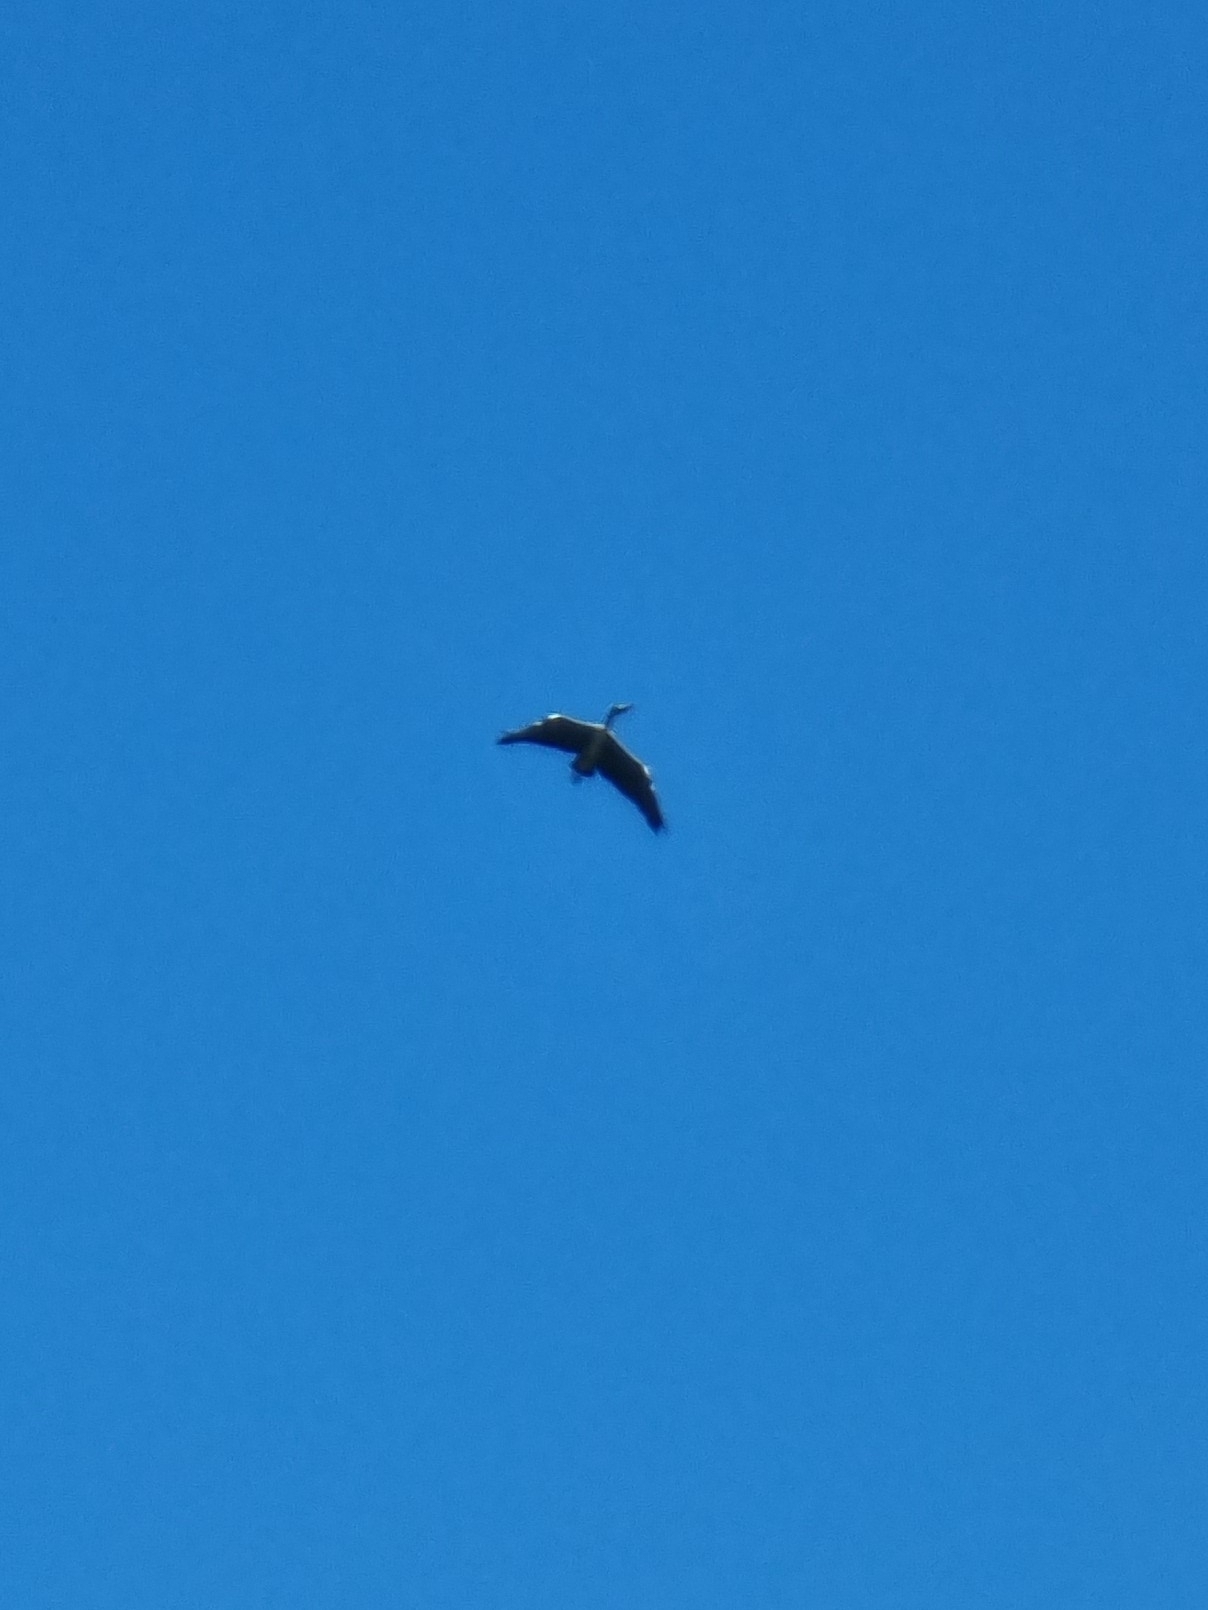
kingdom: Animalia
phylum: Chordata
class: Aves
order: Pelecaniformes
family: Ardeidae
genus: Ardea
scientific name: Ardea cinerea
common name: Grey heron
